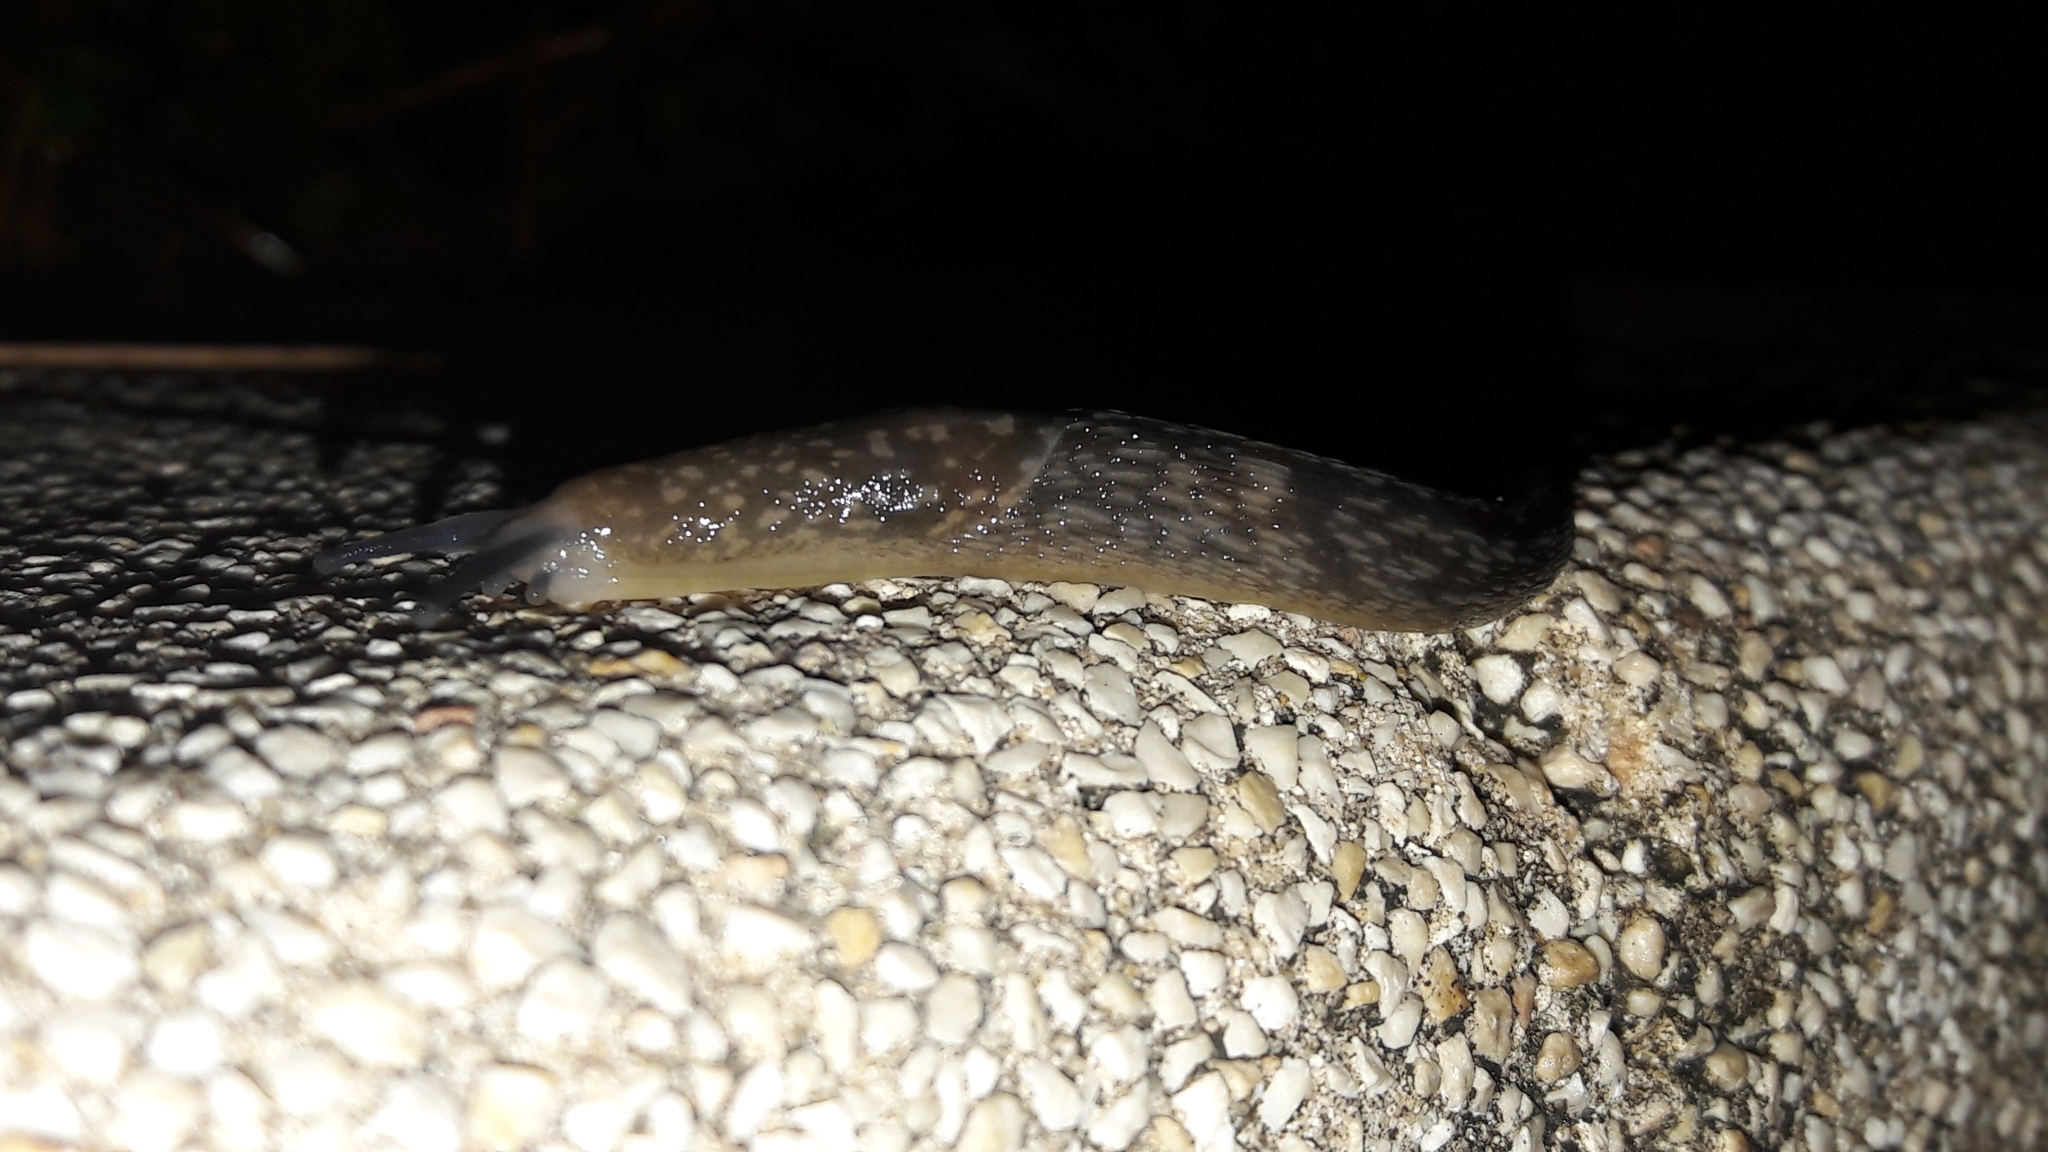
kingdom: Animalia
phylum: Mollusca
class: Gastropoda
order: Stylommatophora
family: Limacidae
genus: Limacus
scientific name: Limacus flavus
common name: Yellow gardenslug
